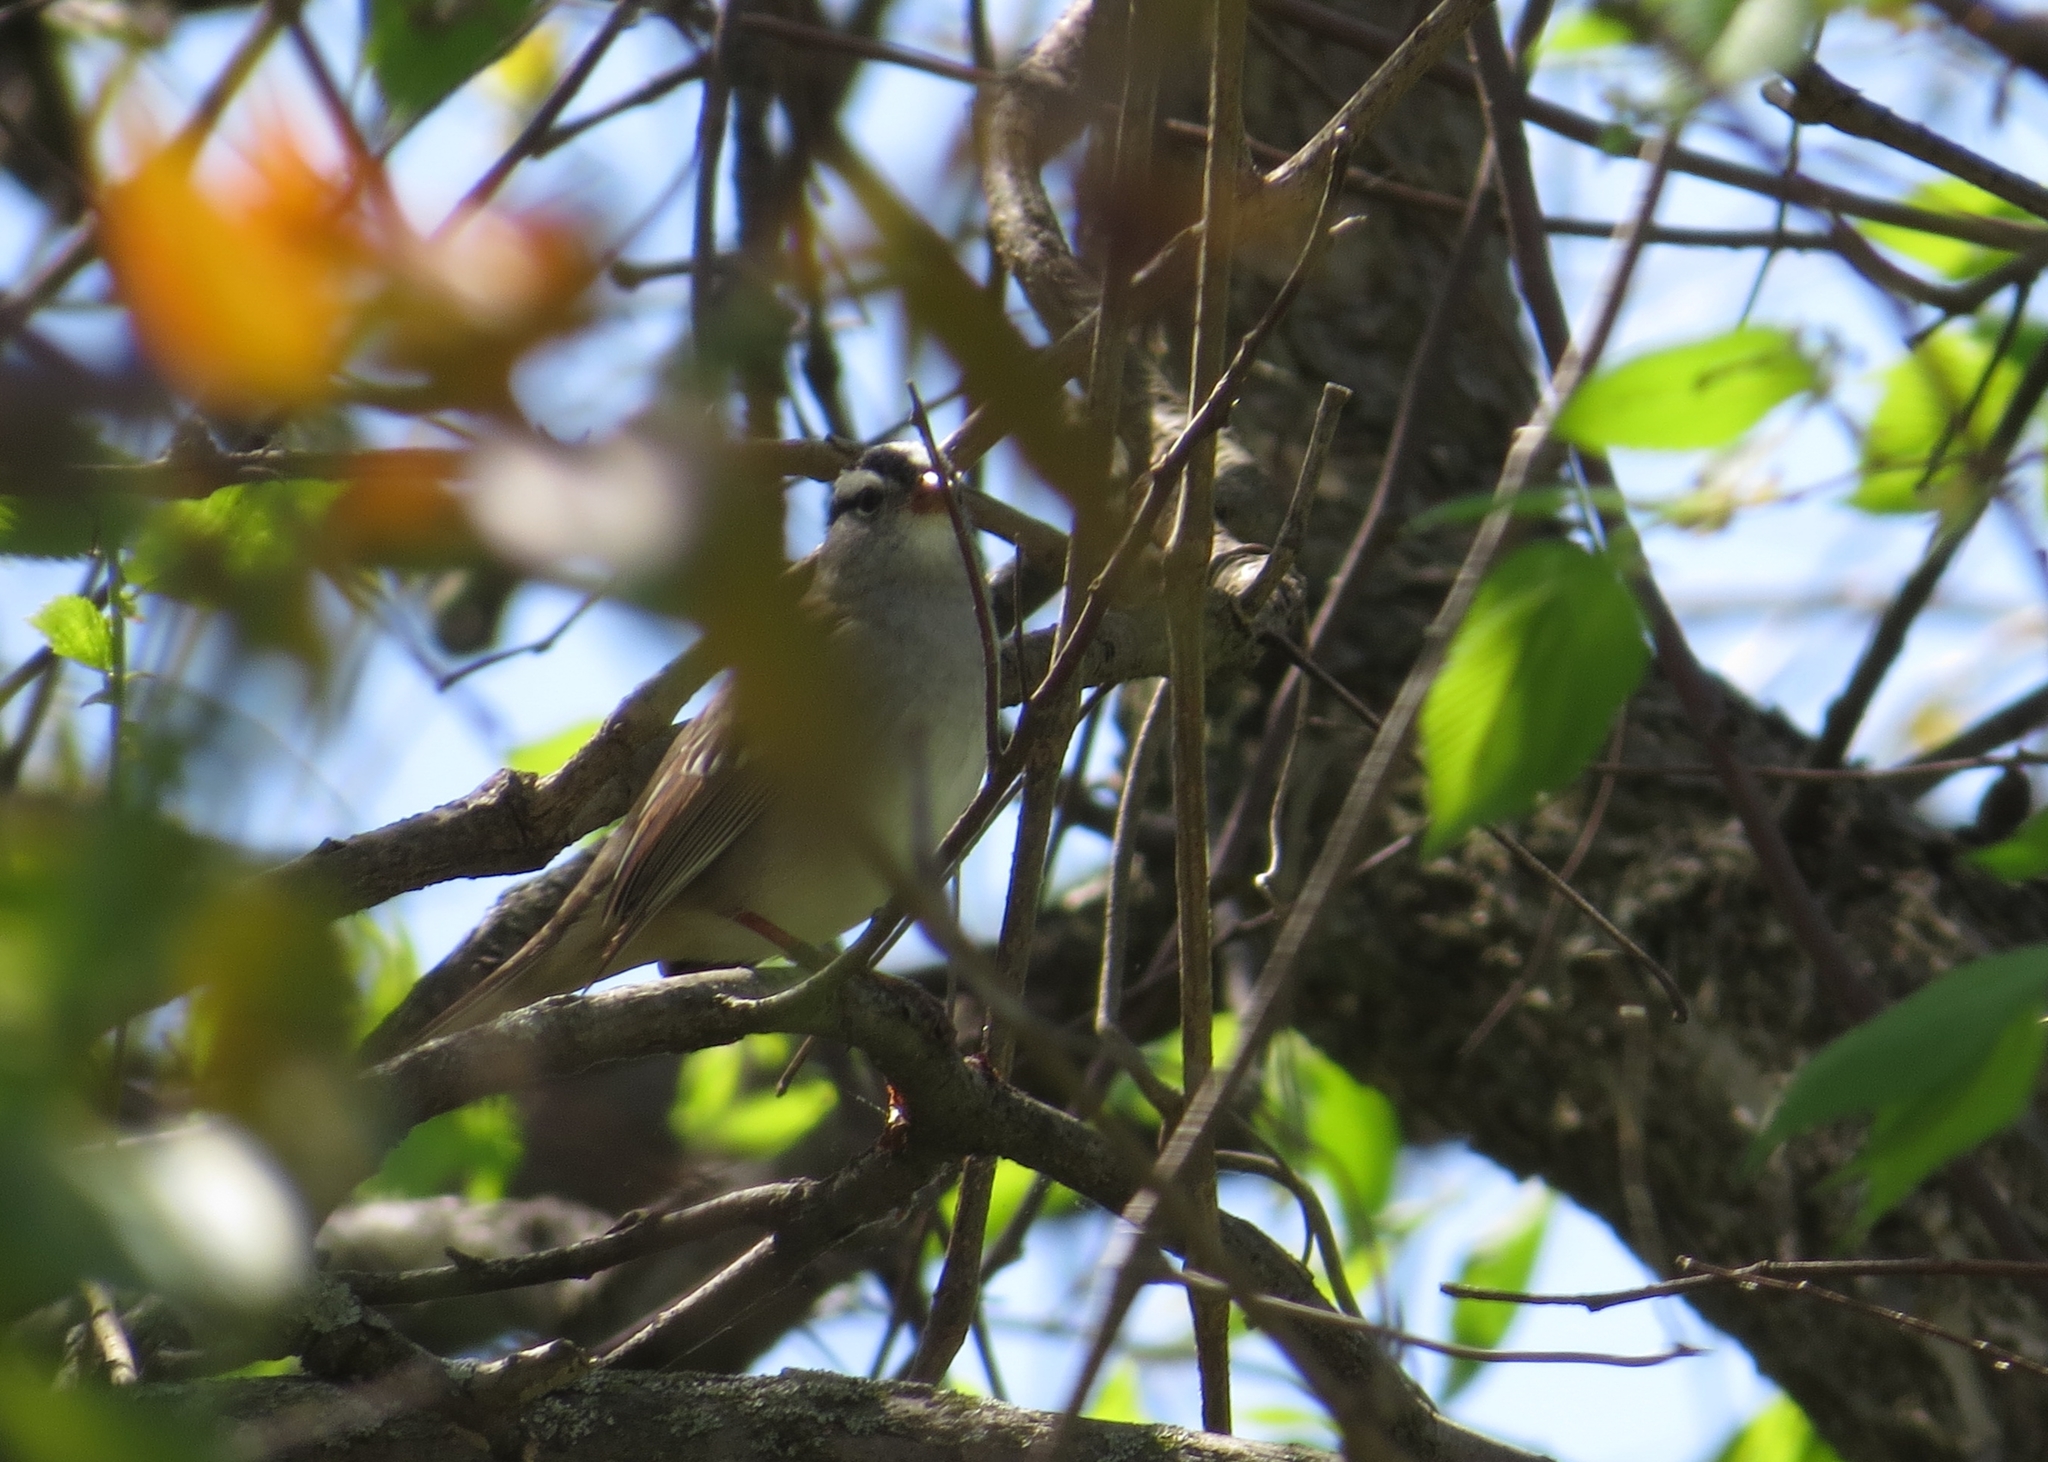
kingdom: Animalia
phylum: Chordata
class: Aves
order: Passeriformes
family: Passerellidae
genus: Zonotrichia
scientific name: Zonotrichia leucophrys
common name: White-crowned sparrow
